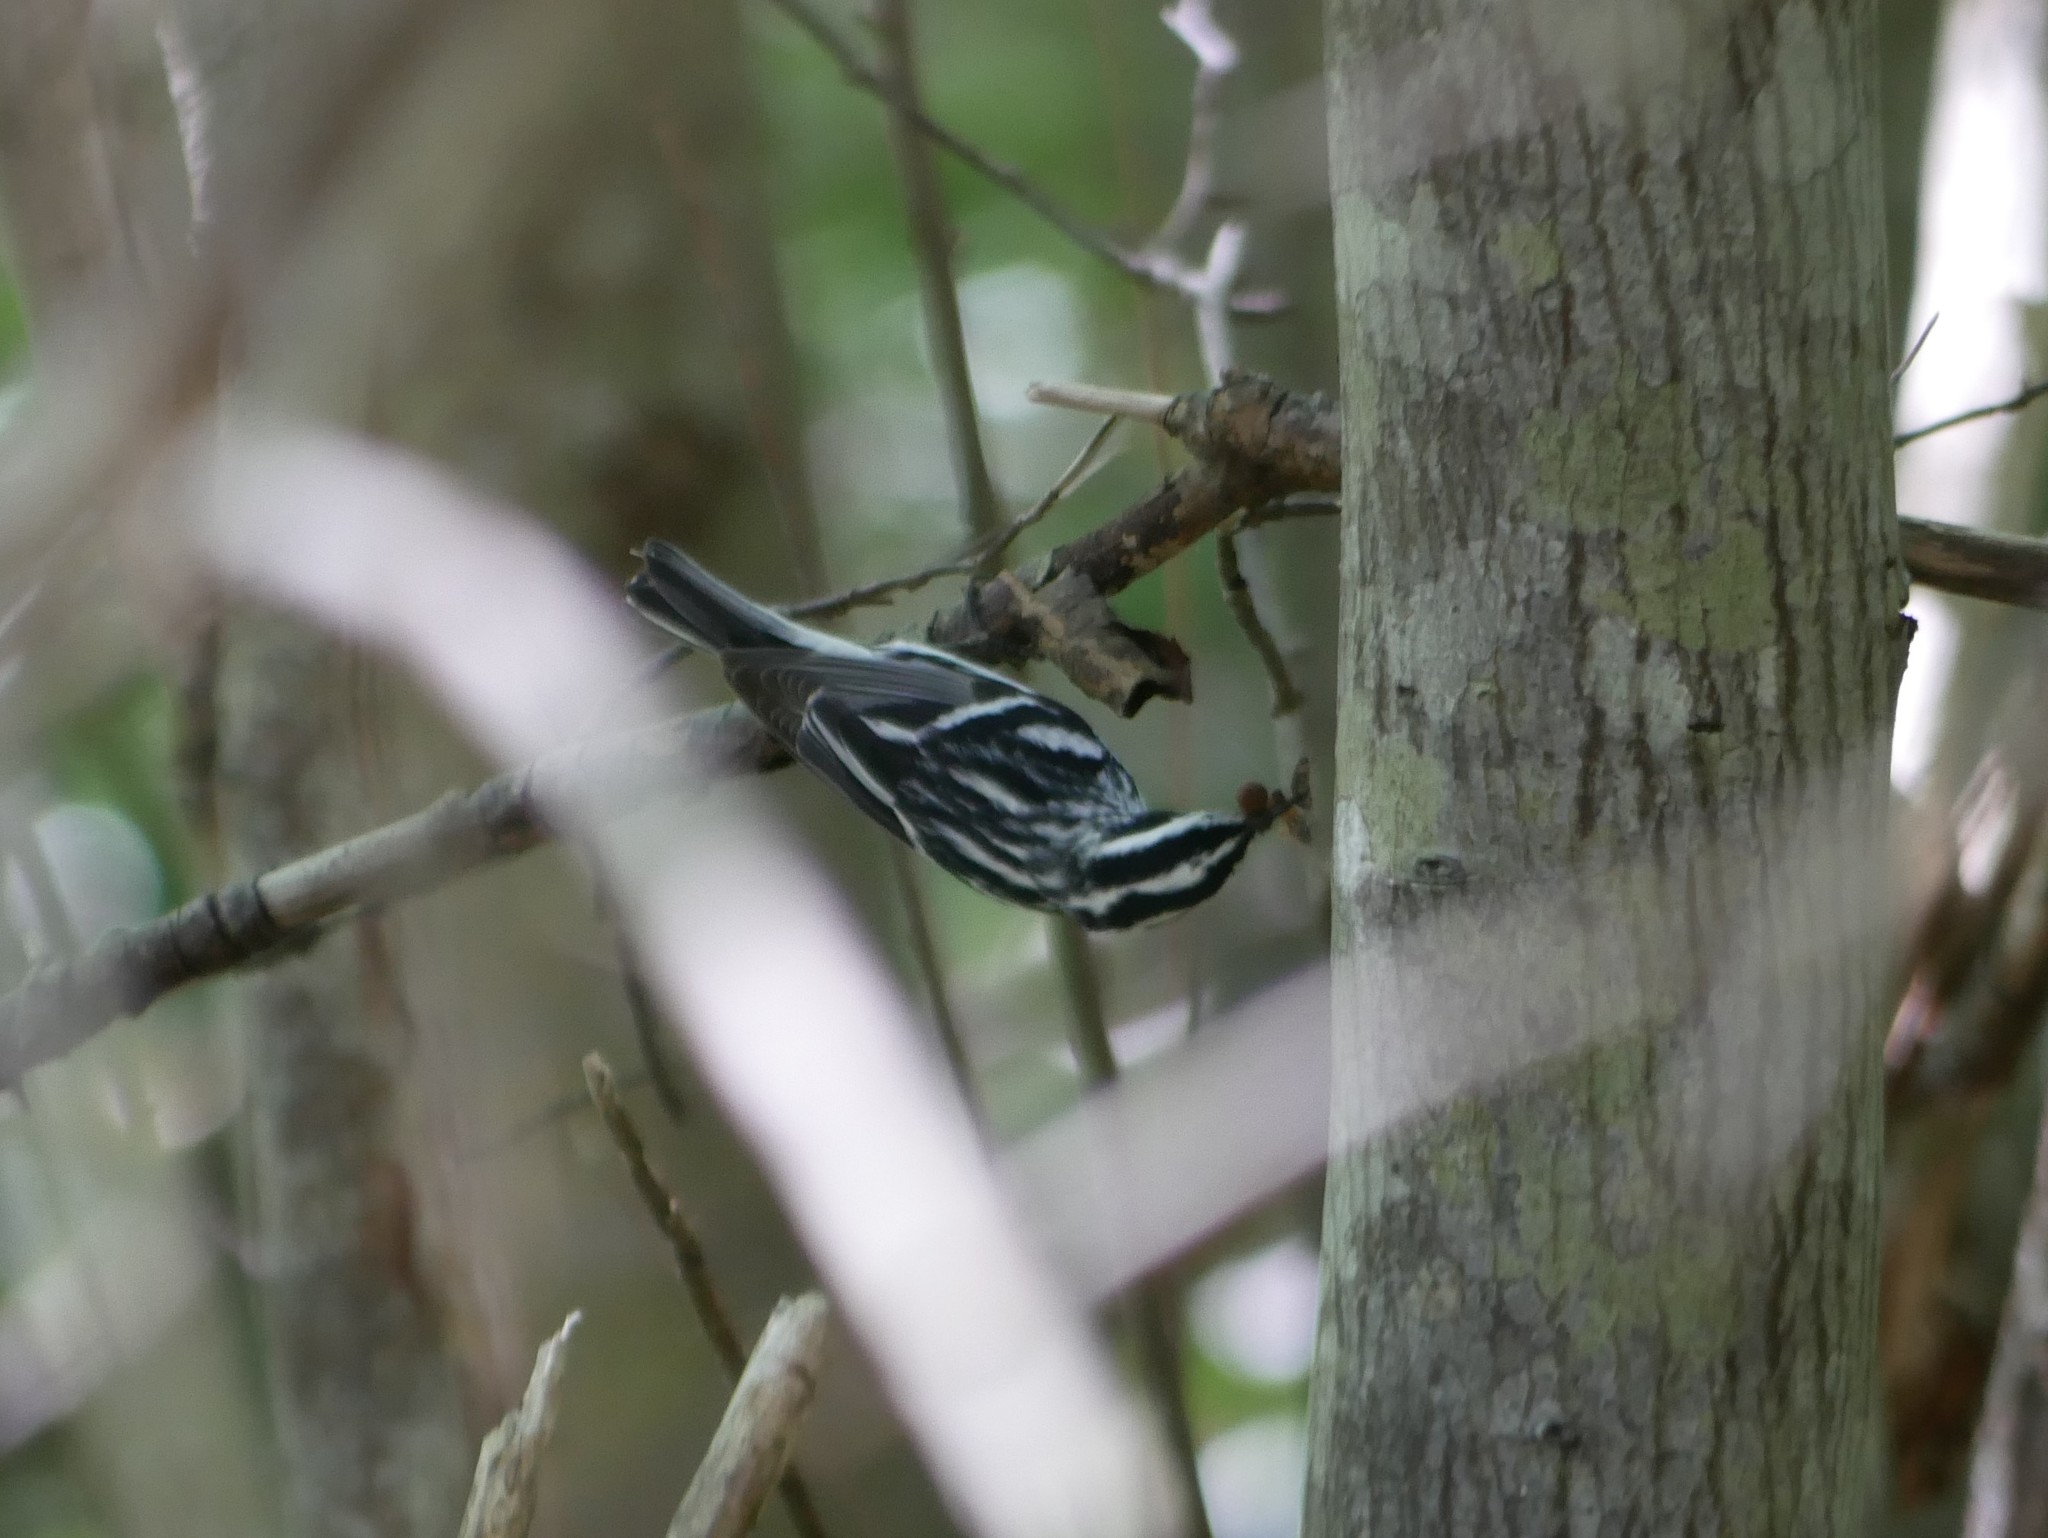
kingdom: Animalia
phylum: Chordata
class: Aves
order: Passeriformes
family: Parulidae
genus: Mniotilta
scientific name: Mniotilta varia
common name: Black-and-white warbler
